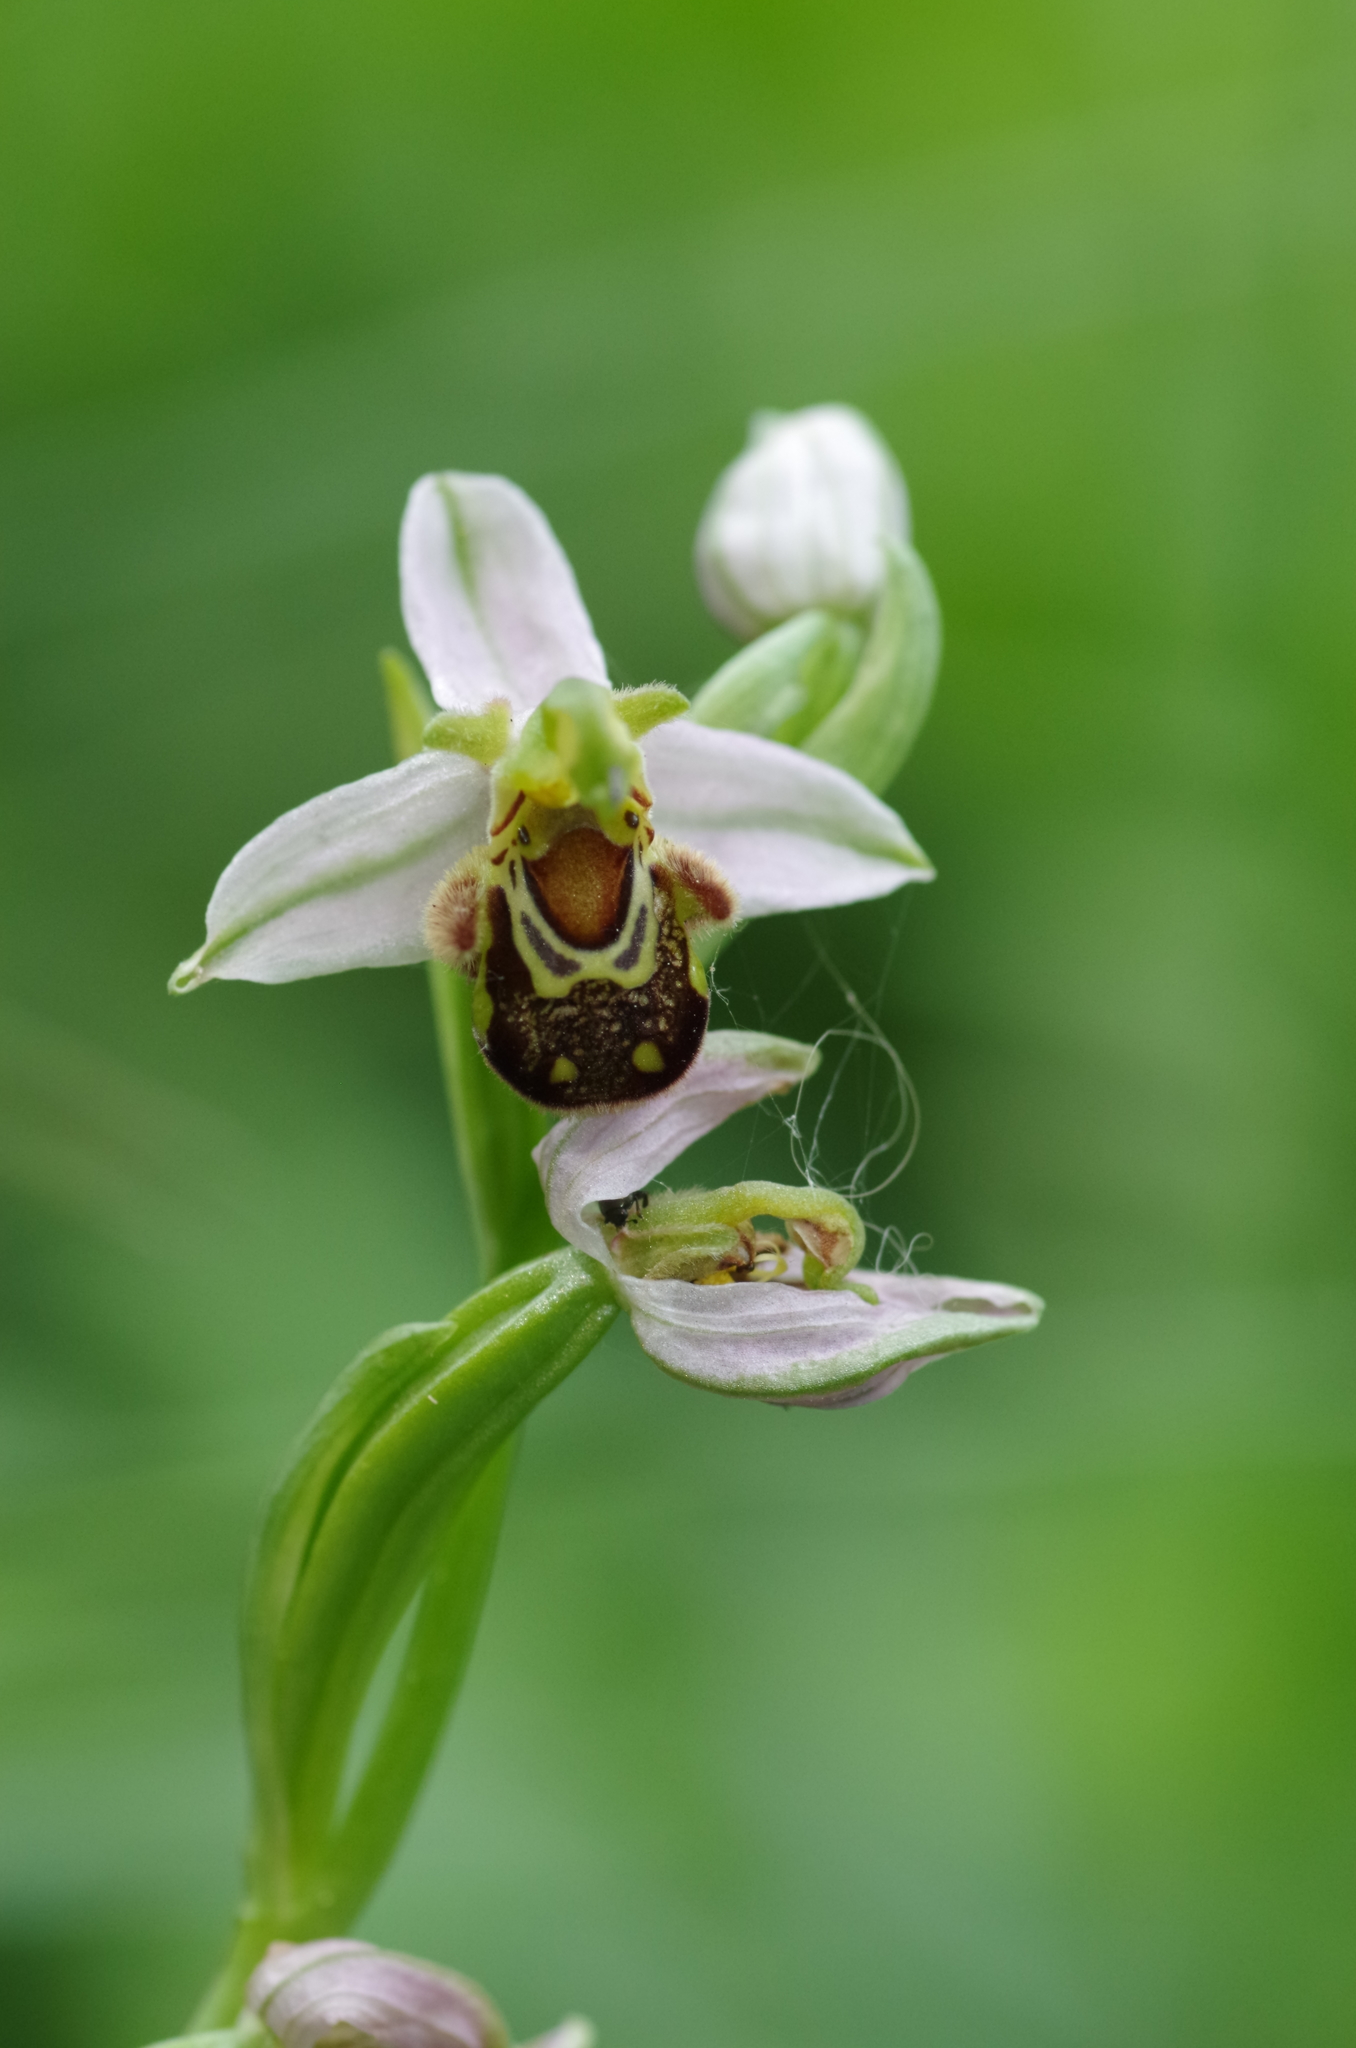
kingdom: Plantae
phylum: Tracheophyta
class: Liliopsida
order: Asparagales
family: Orchidaceae
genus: Ophrys
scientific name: Ophrys apifera
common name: Bee orchid
